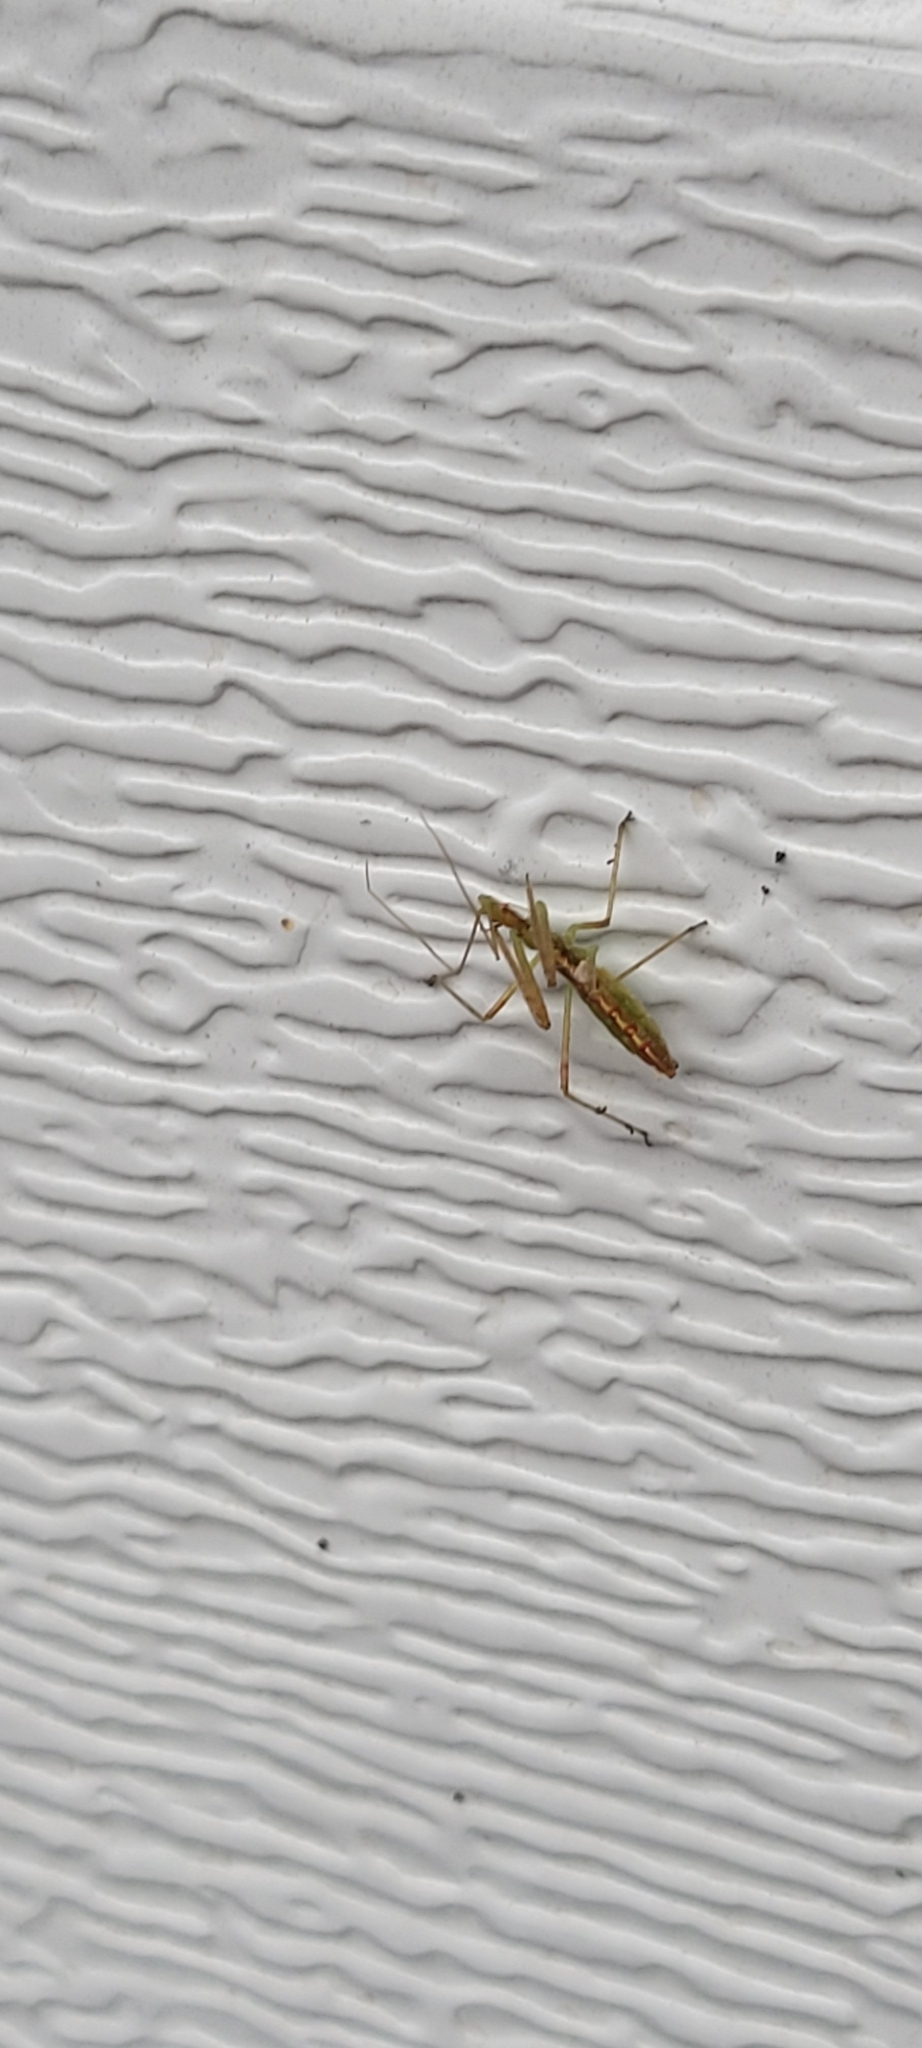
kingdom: Animalia
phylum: Arthropoda
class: Insecta
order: Hemiptera
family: Reduviidae
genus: Zelus
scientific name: Zelus luridus
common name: Pale green assassin bug
